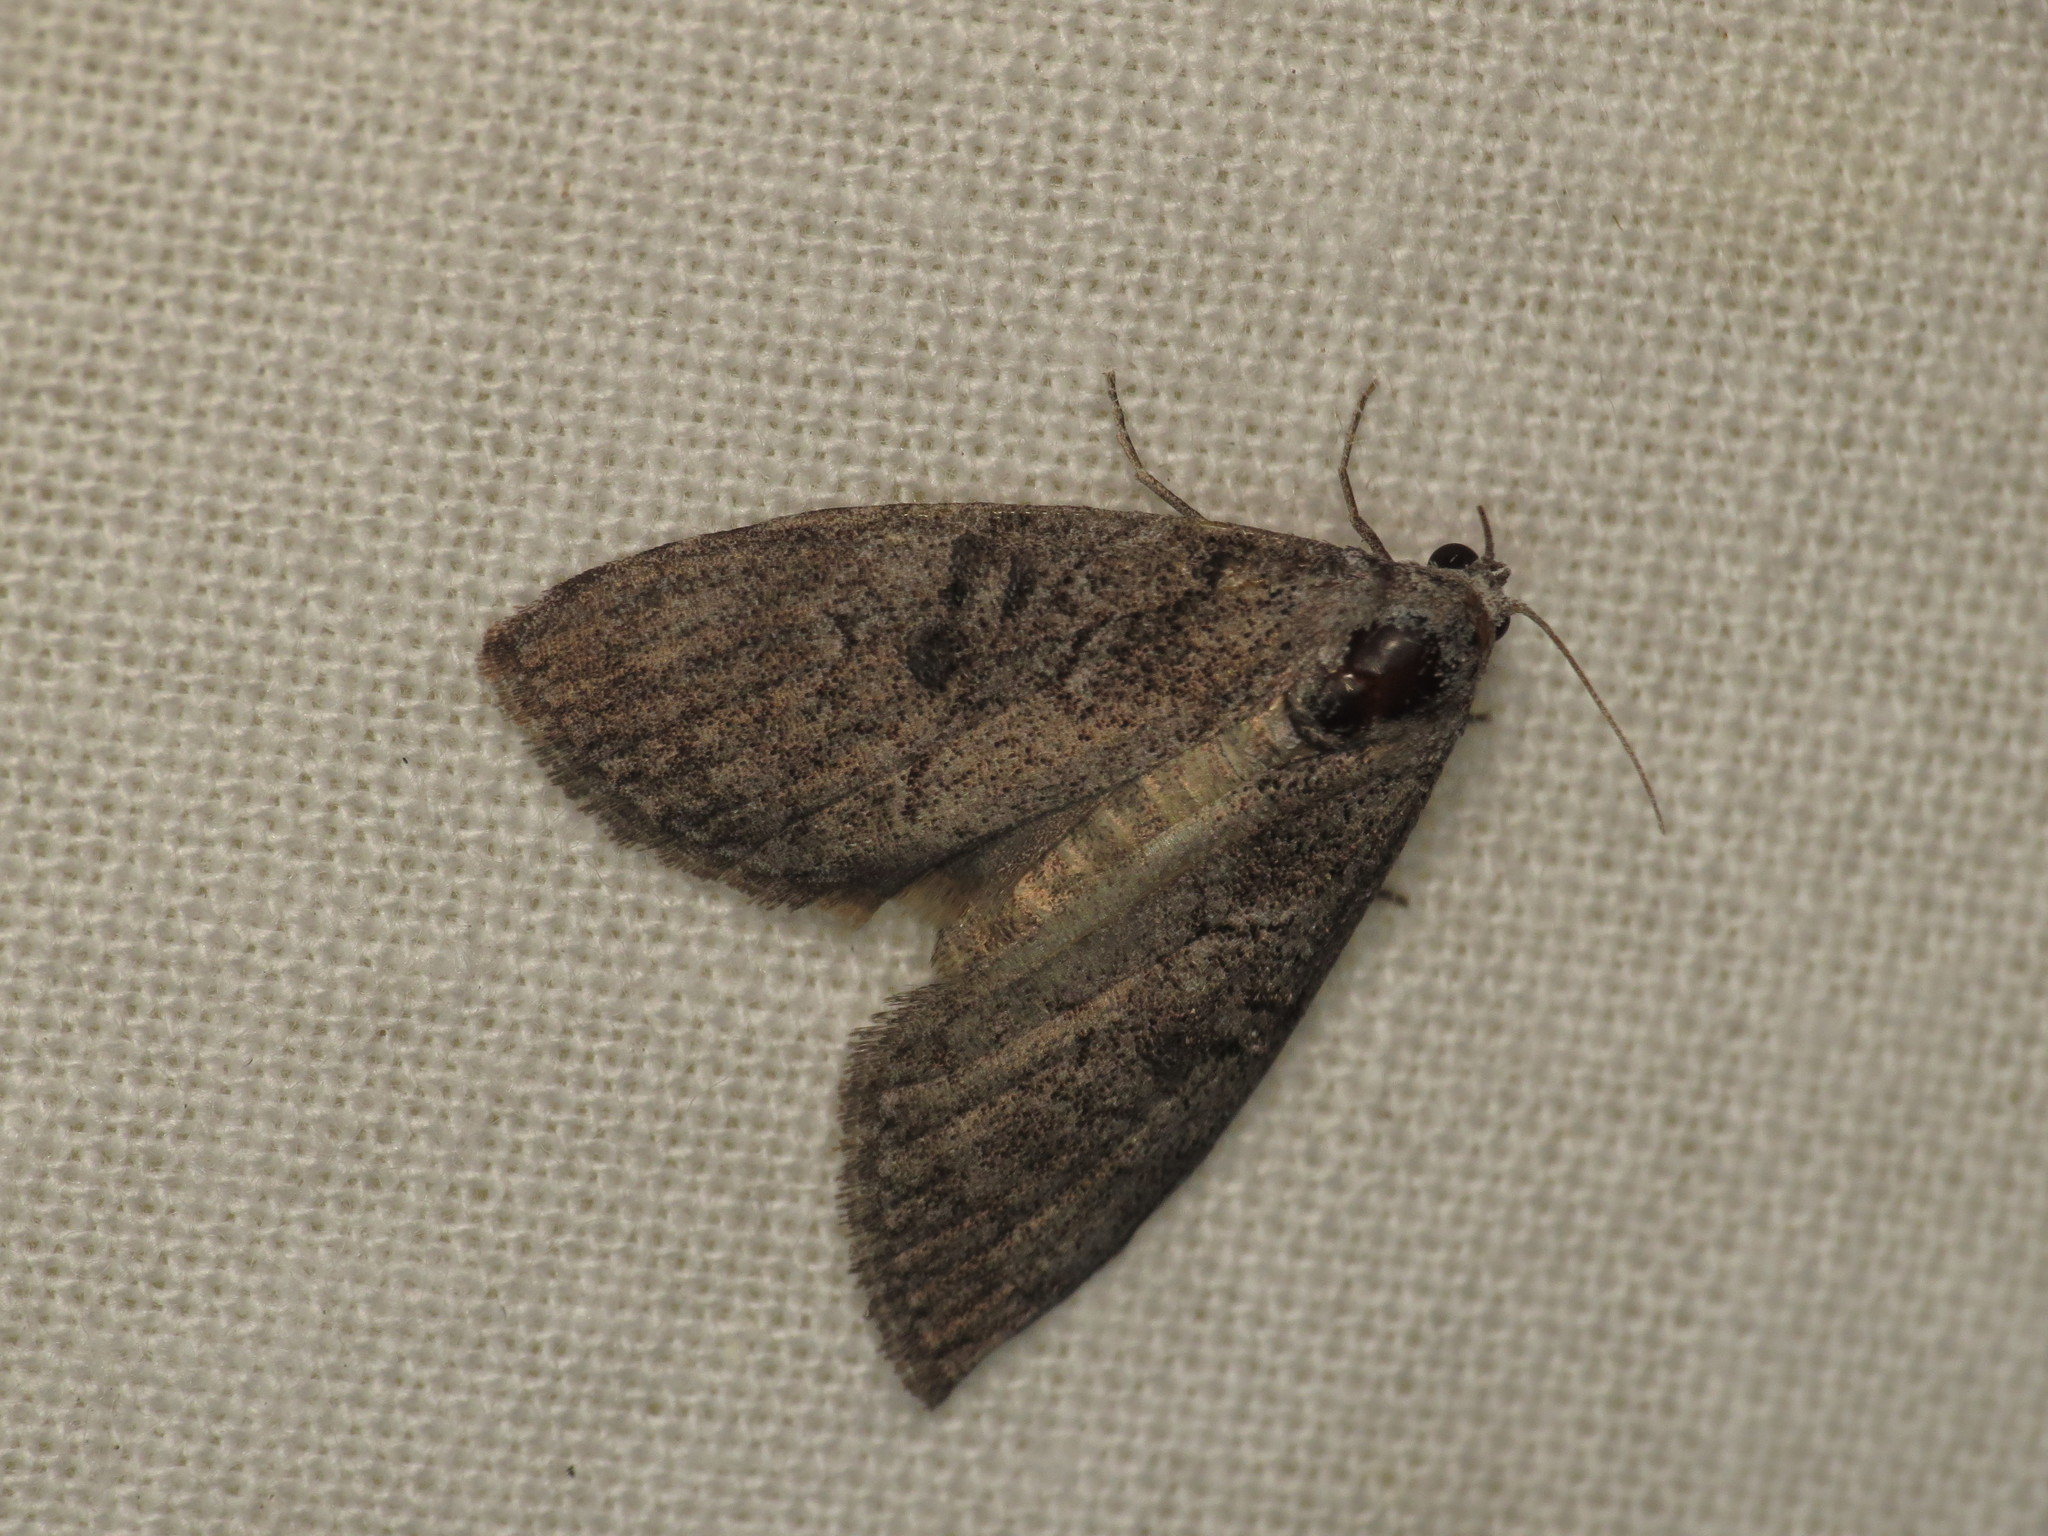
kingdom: Animalia
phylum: Arthropoda
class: Insecta
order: Lepidoptera
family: Nolidae
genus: Uraba
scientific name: Uraba lugens
